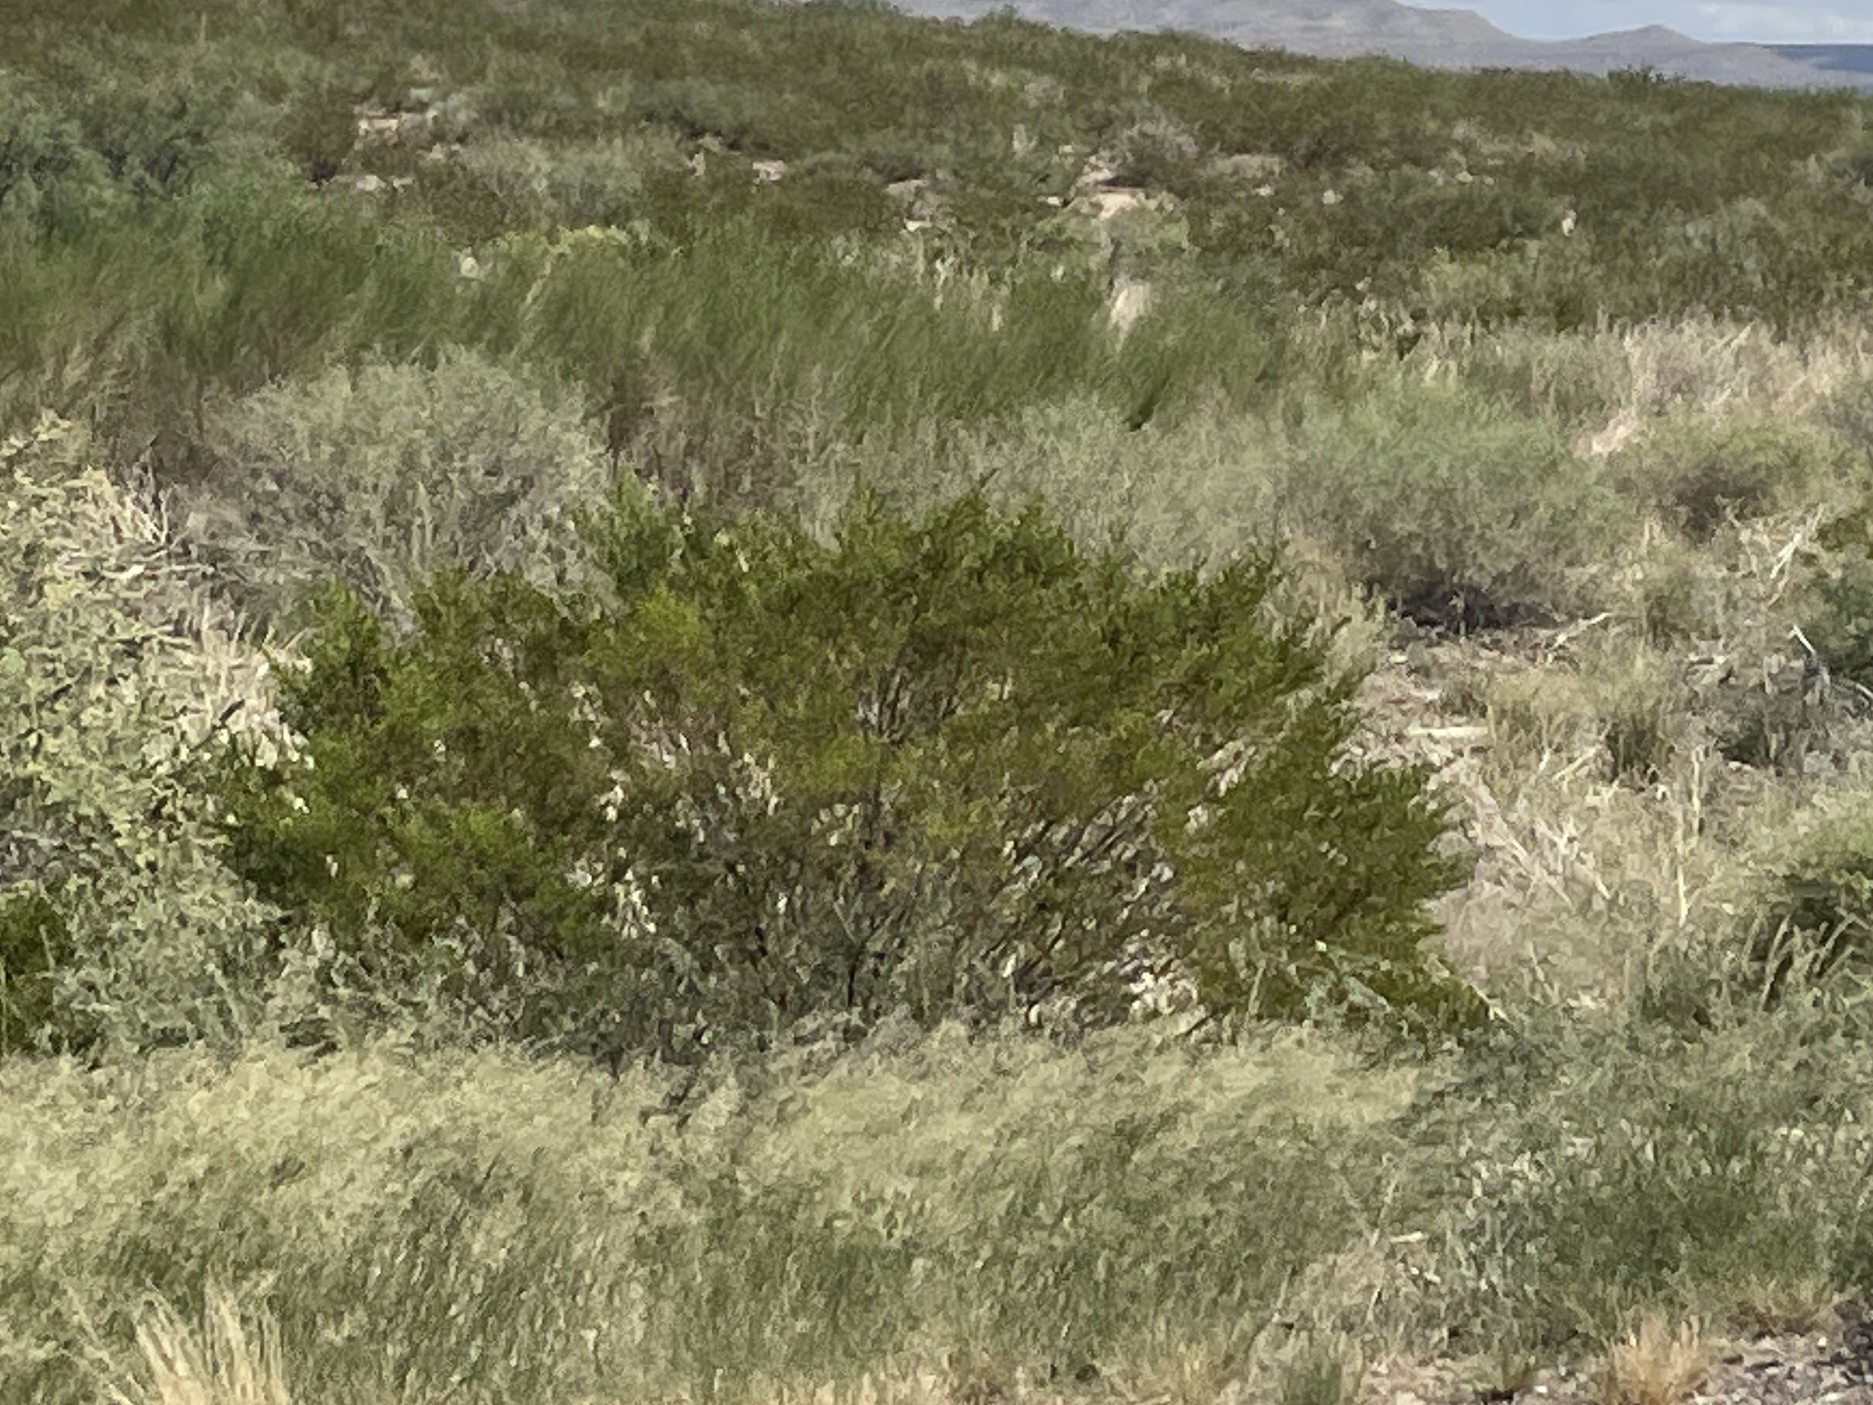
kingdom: Plantae
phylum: Tracheophyta
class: Magnoliopsida
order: Zygophyllales
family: Zygophyllaceae
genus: Larrea
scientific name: Larrea tridentata
